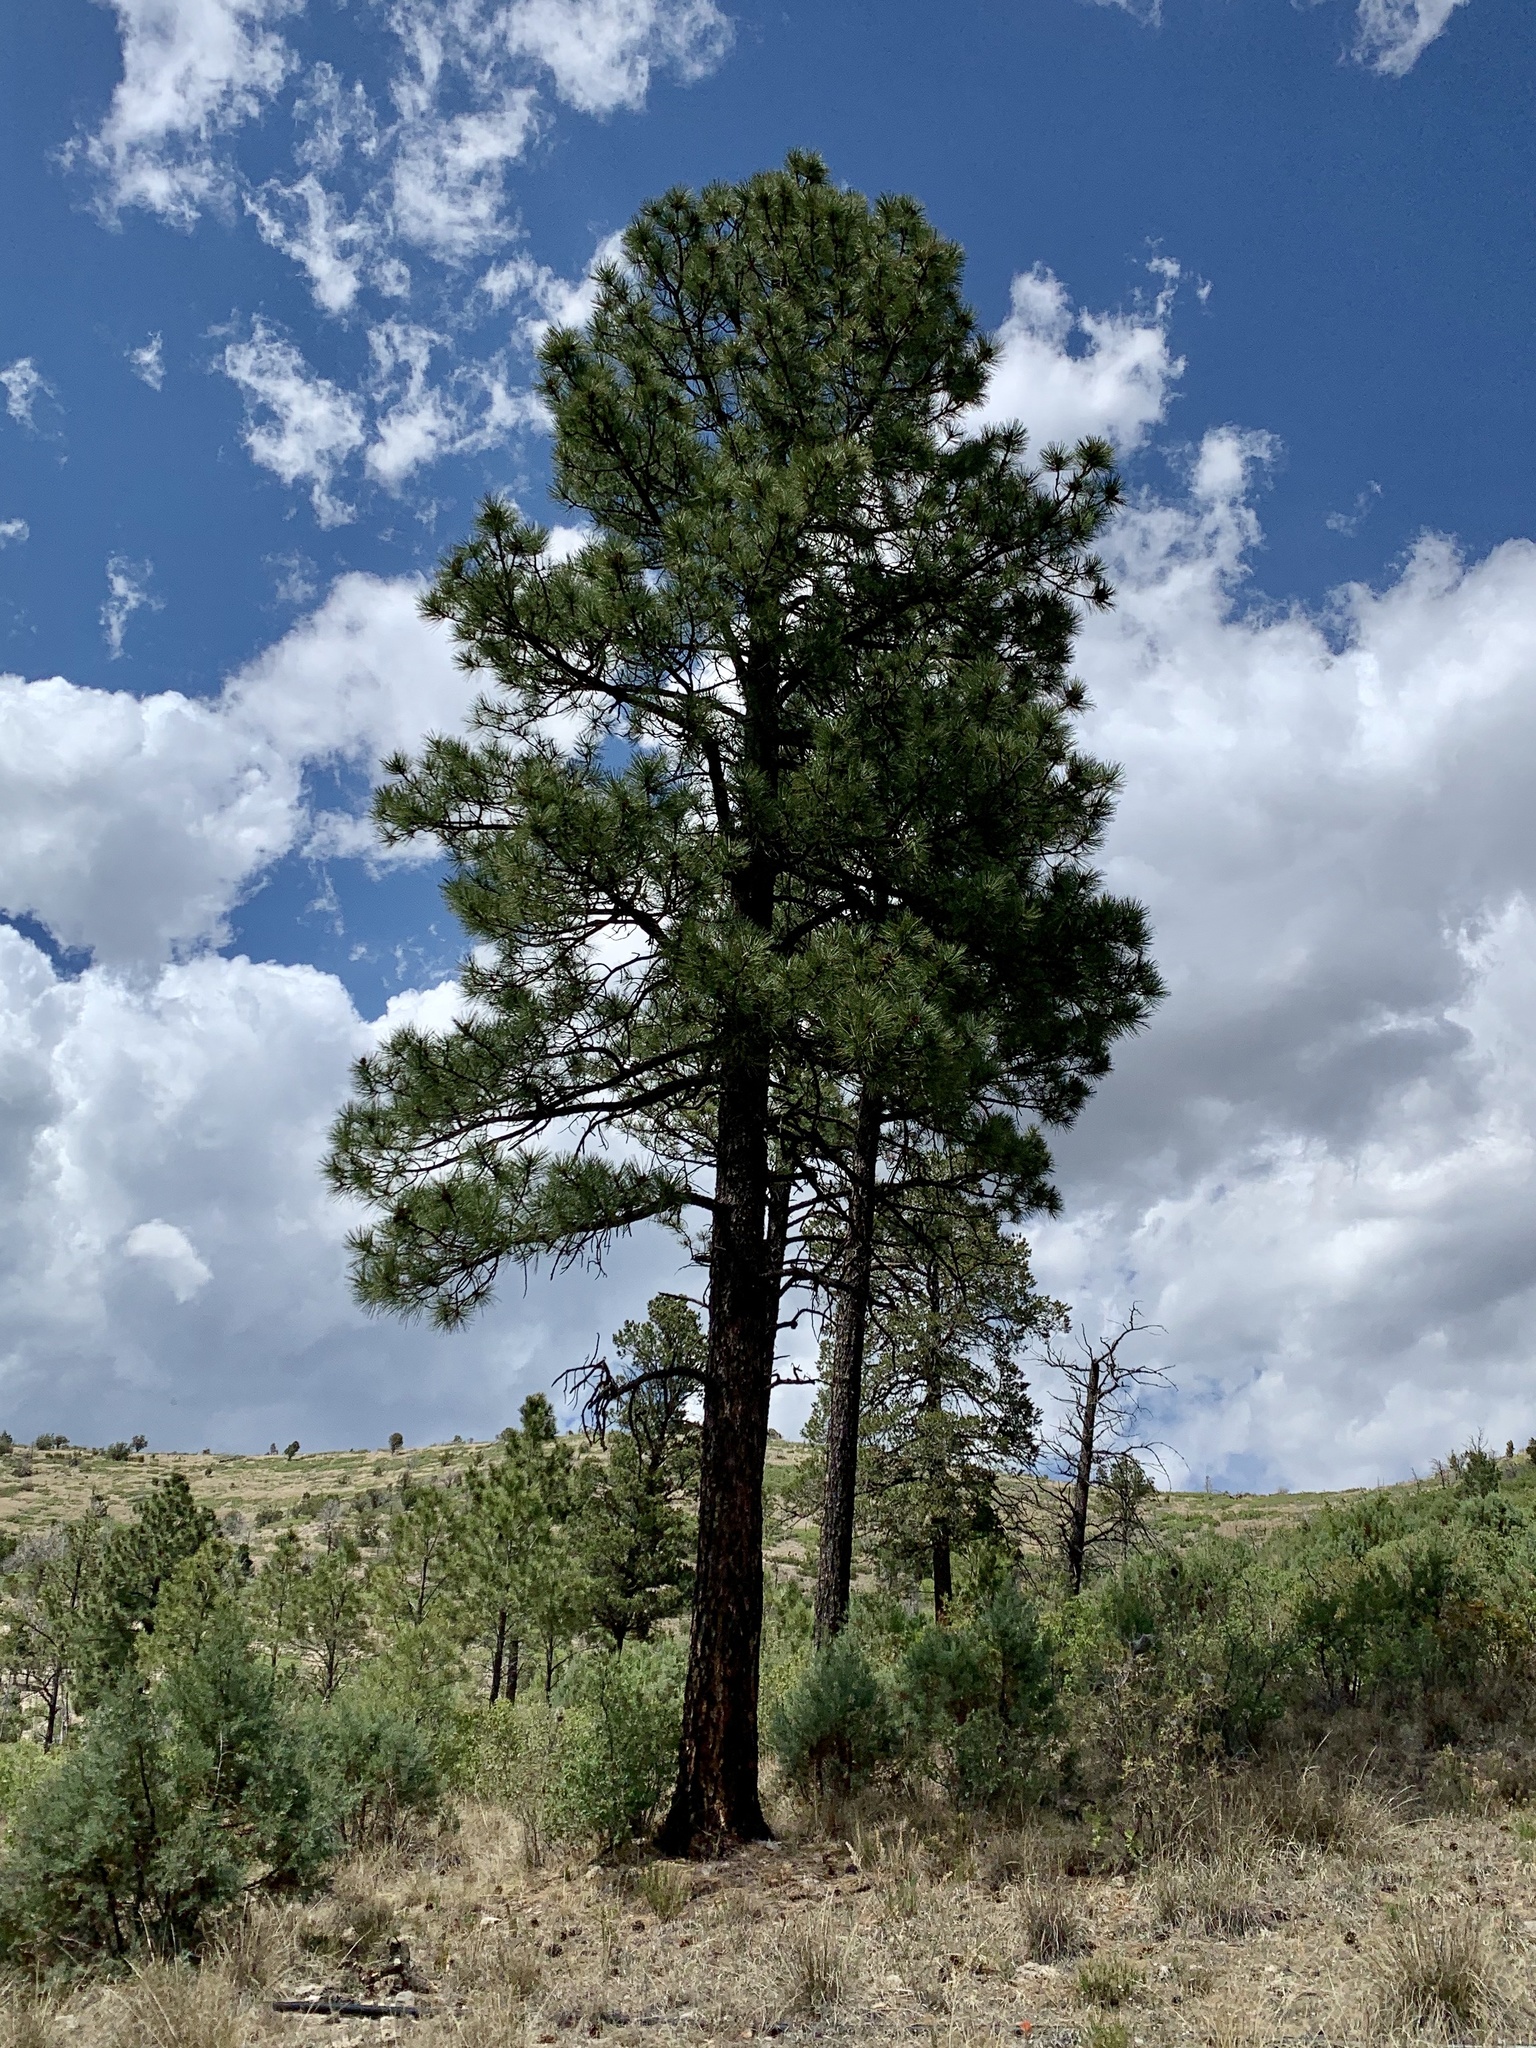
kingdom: Plantae
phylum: Tracheophyta
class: Pinopsida
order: Pinales
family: Pinaceae
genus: Pinus
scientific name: Pinus ponderosa
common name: Western yellow-pine
